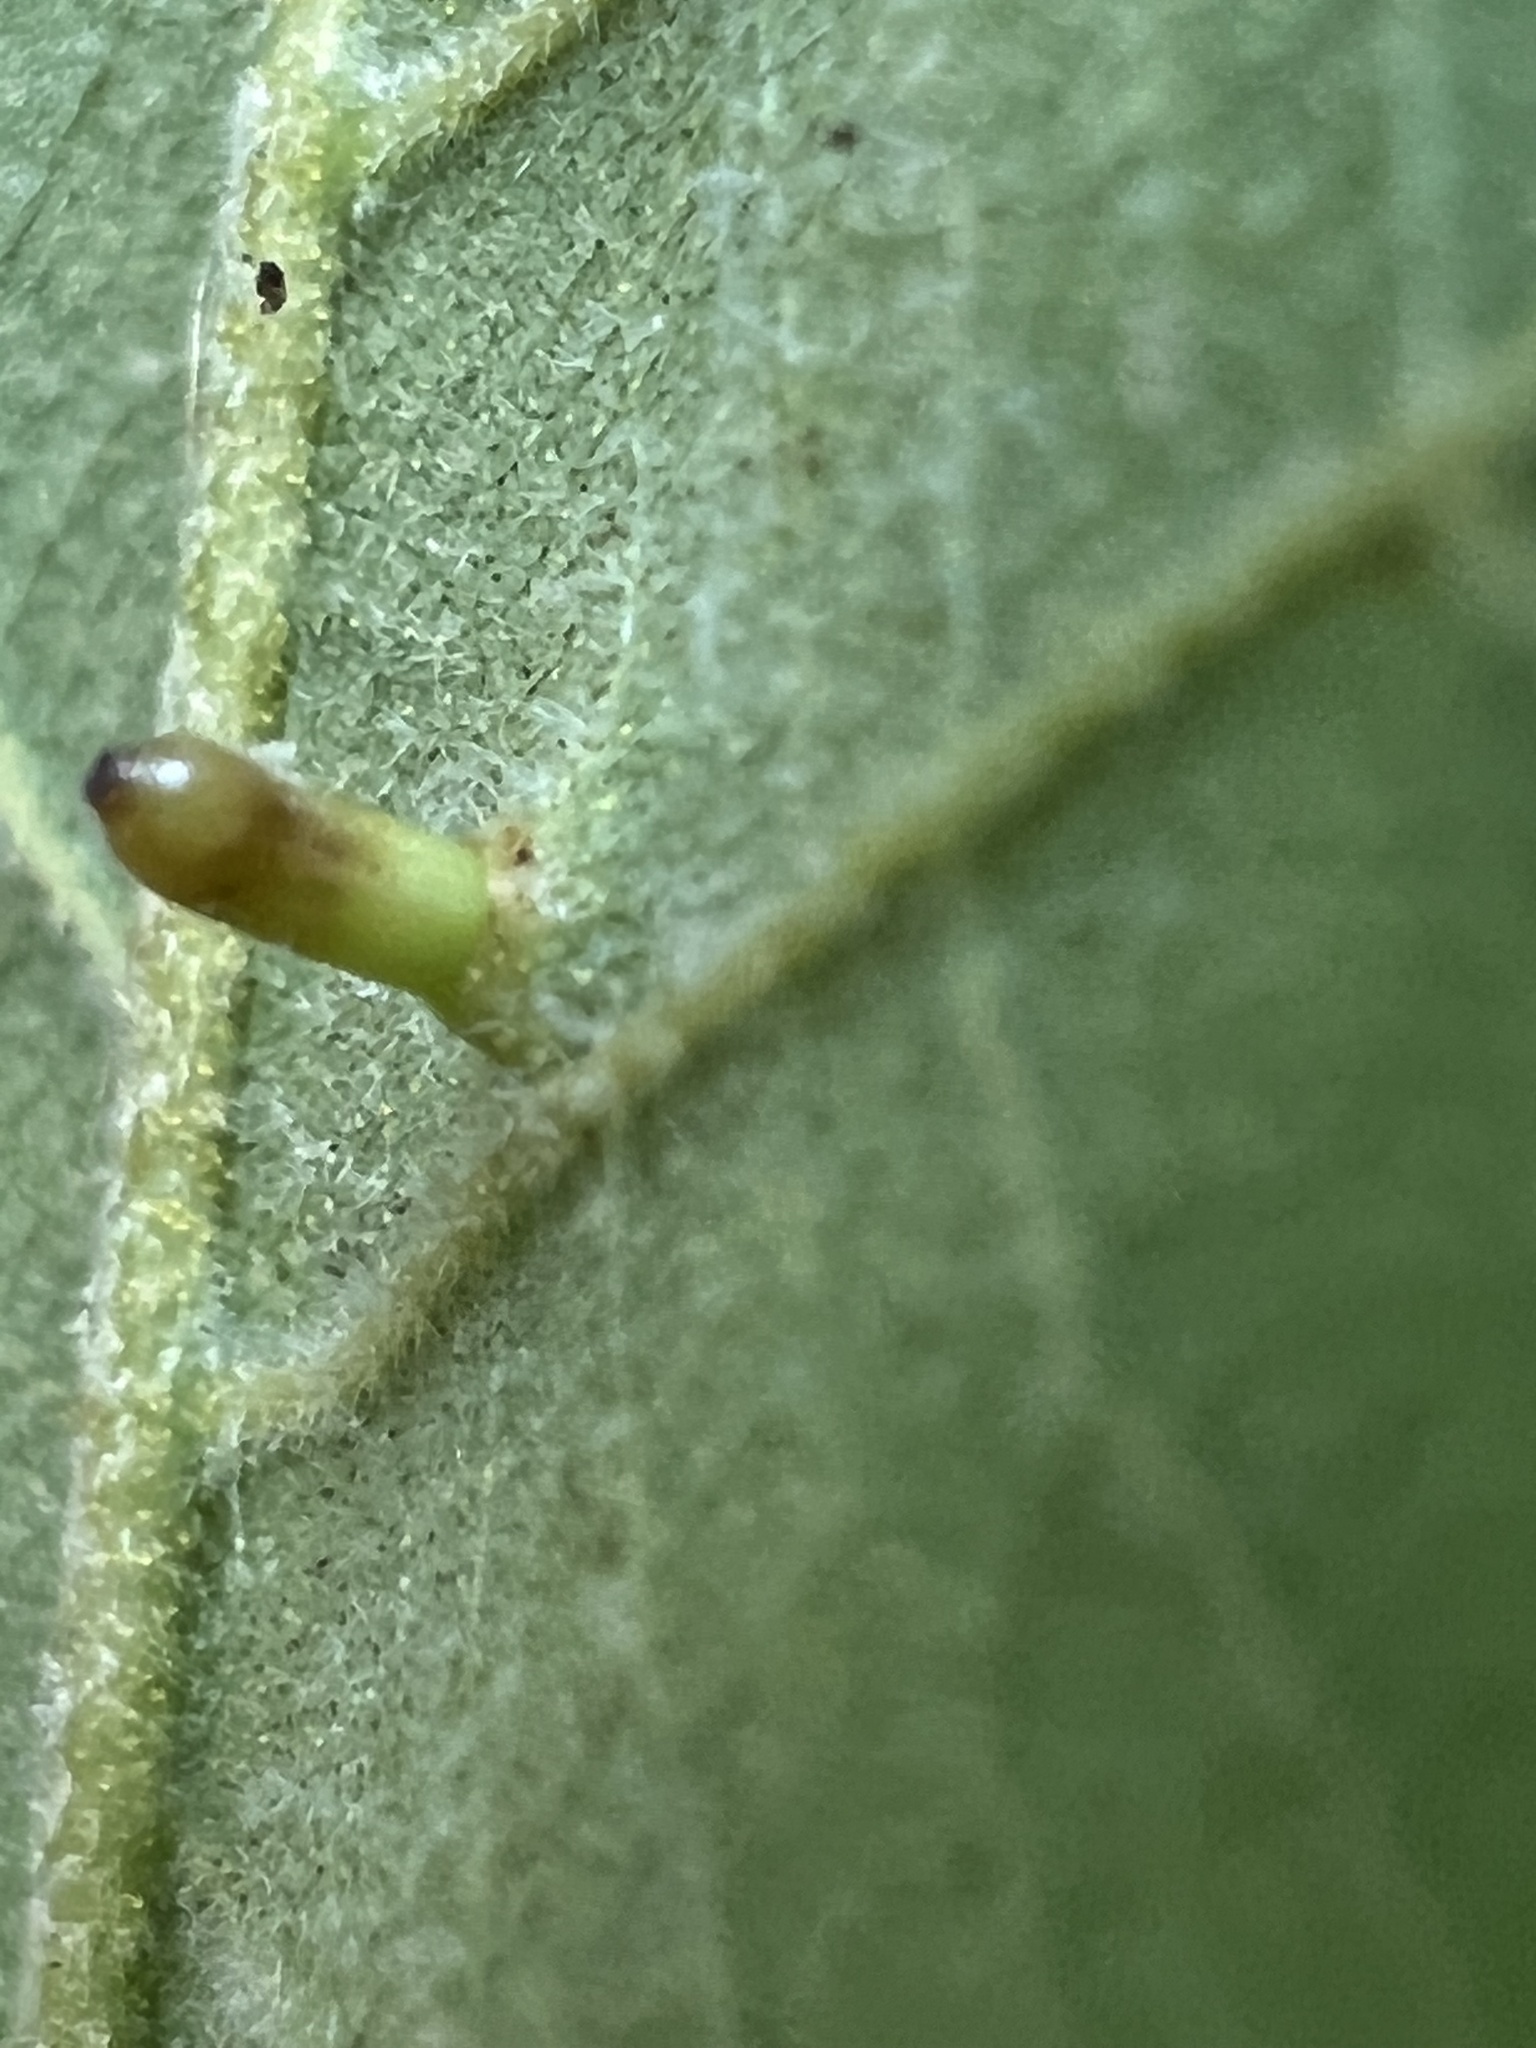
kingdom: Animalia
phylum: Arthropoda
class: Insecta
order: Diptera
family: Cecidomyiidae
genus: Caryomyia
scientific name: Caryomyia tubicola
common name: Hickory bullet gall midge
